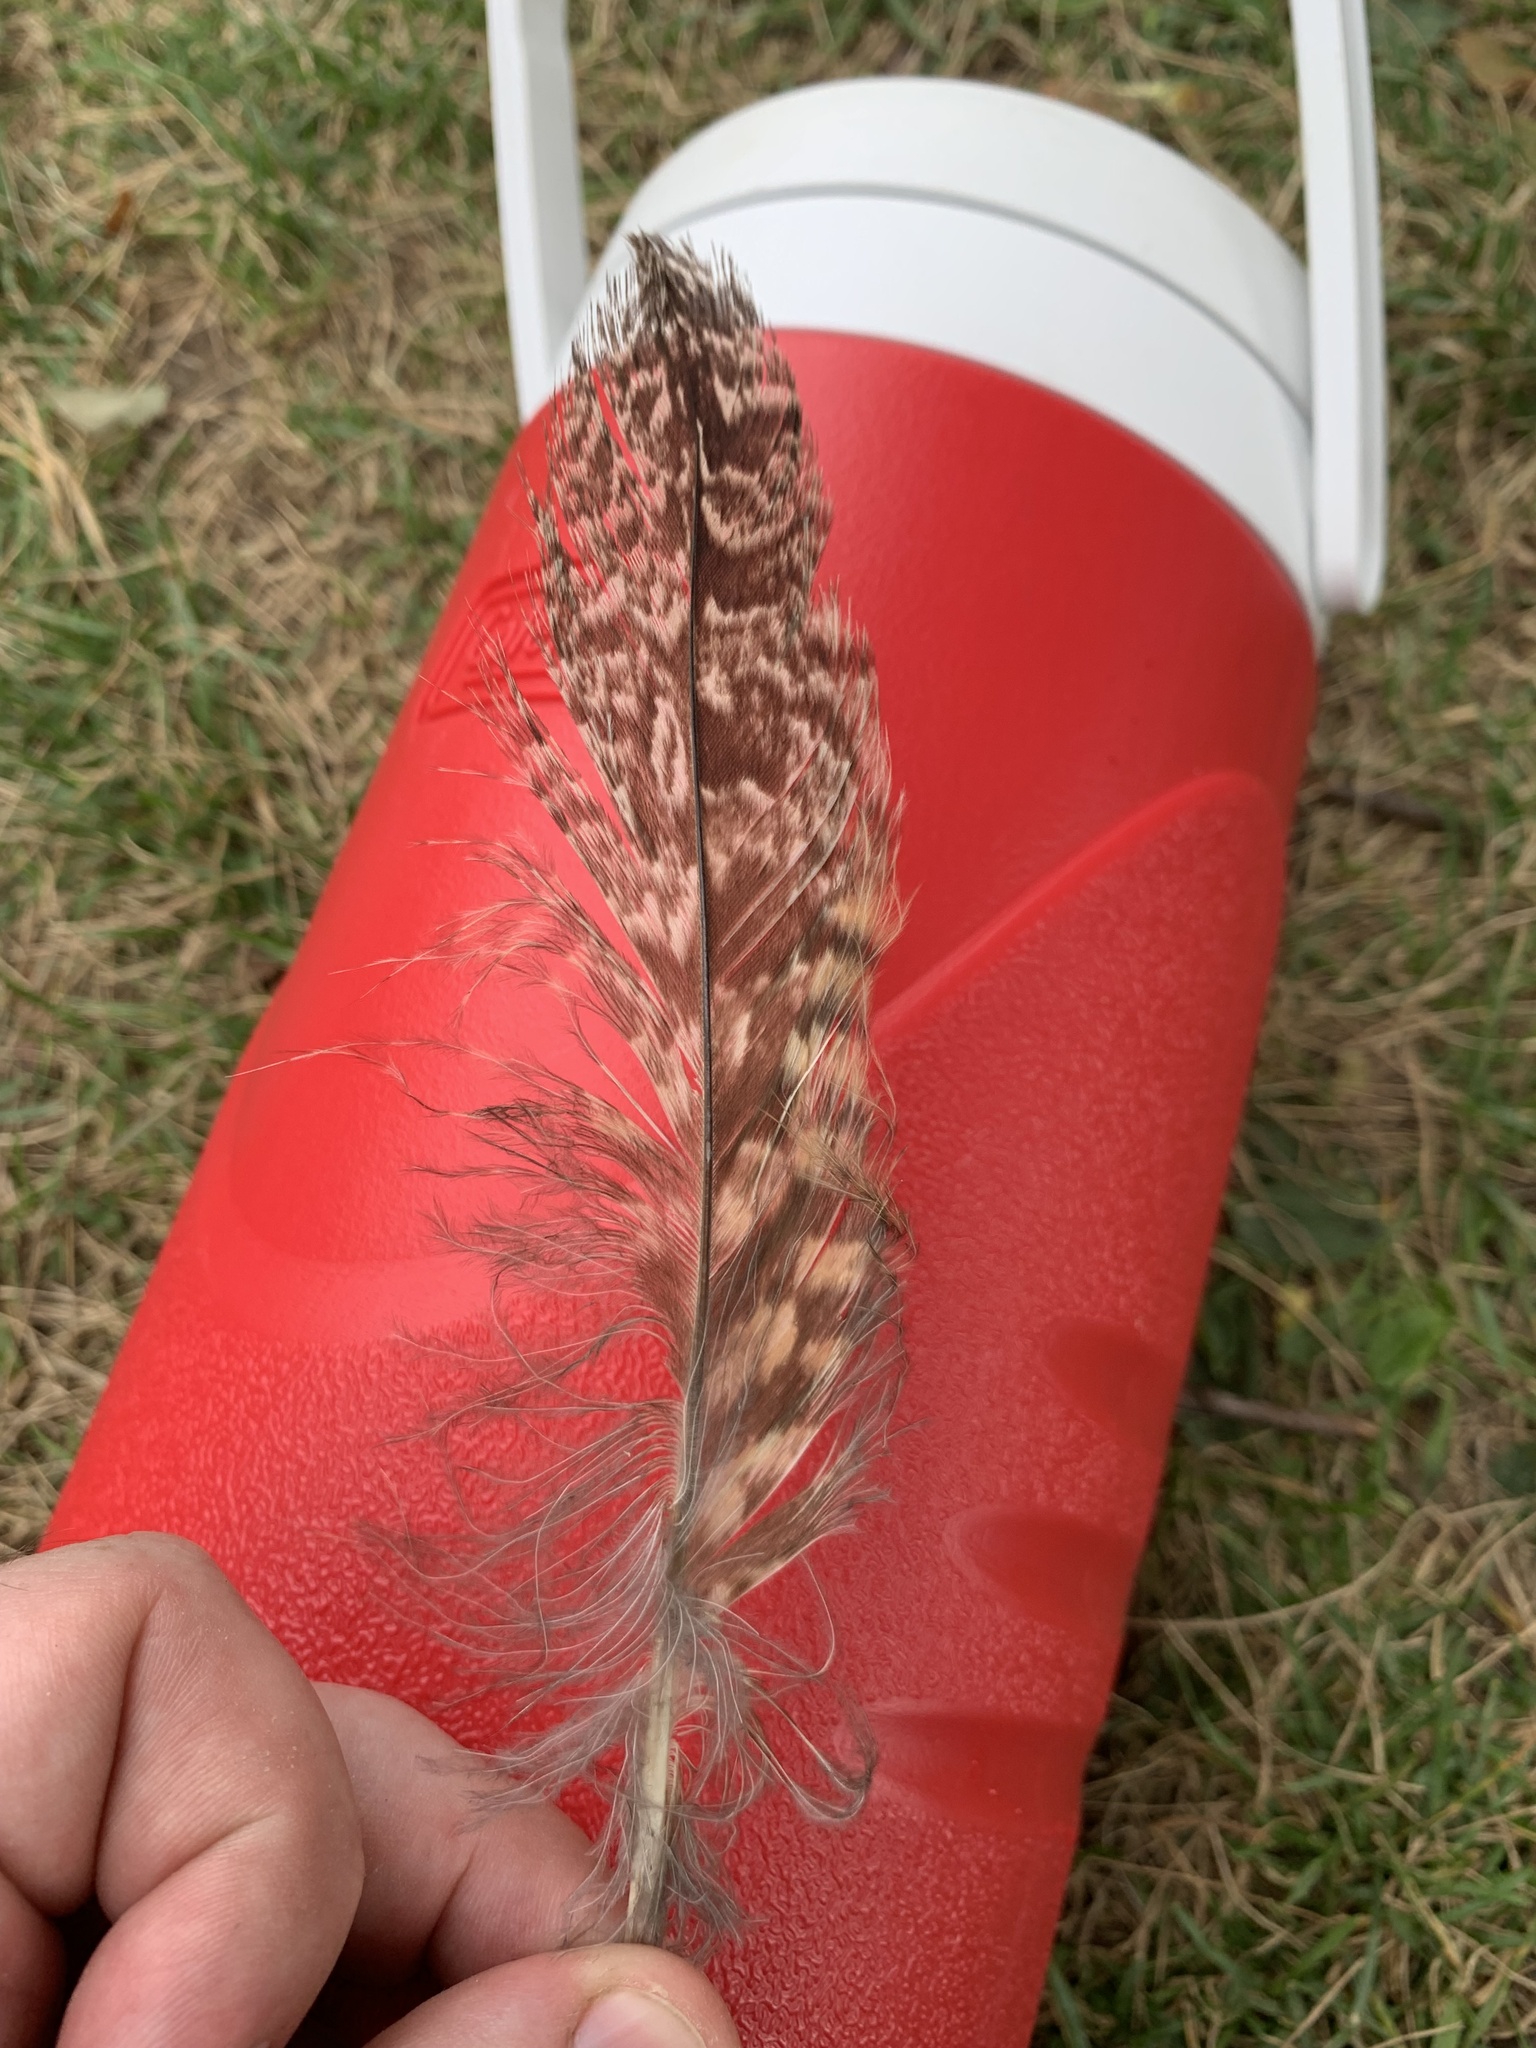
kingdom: Animalia
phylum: Chordata
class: Aves
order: Strigiformes
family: Strigidae
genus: Bubo
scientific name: Bubo virginianus
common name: Great horned owl
